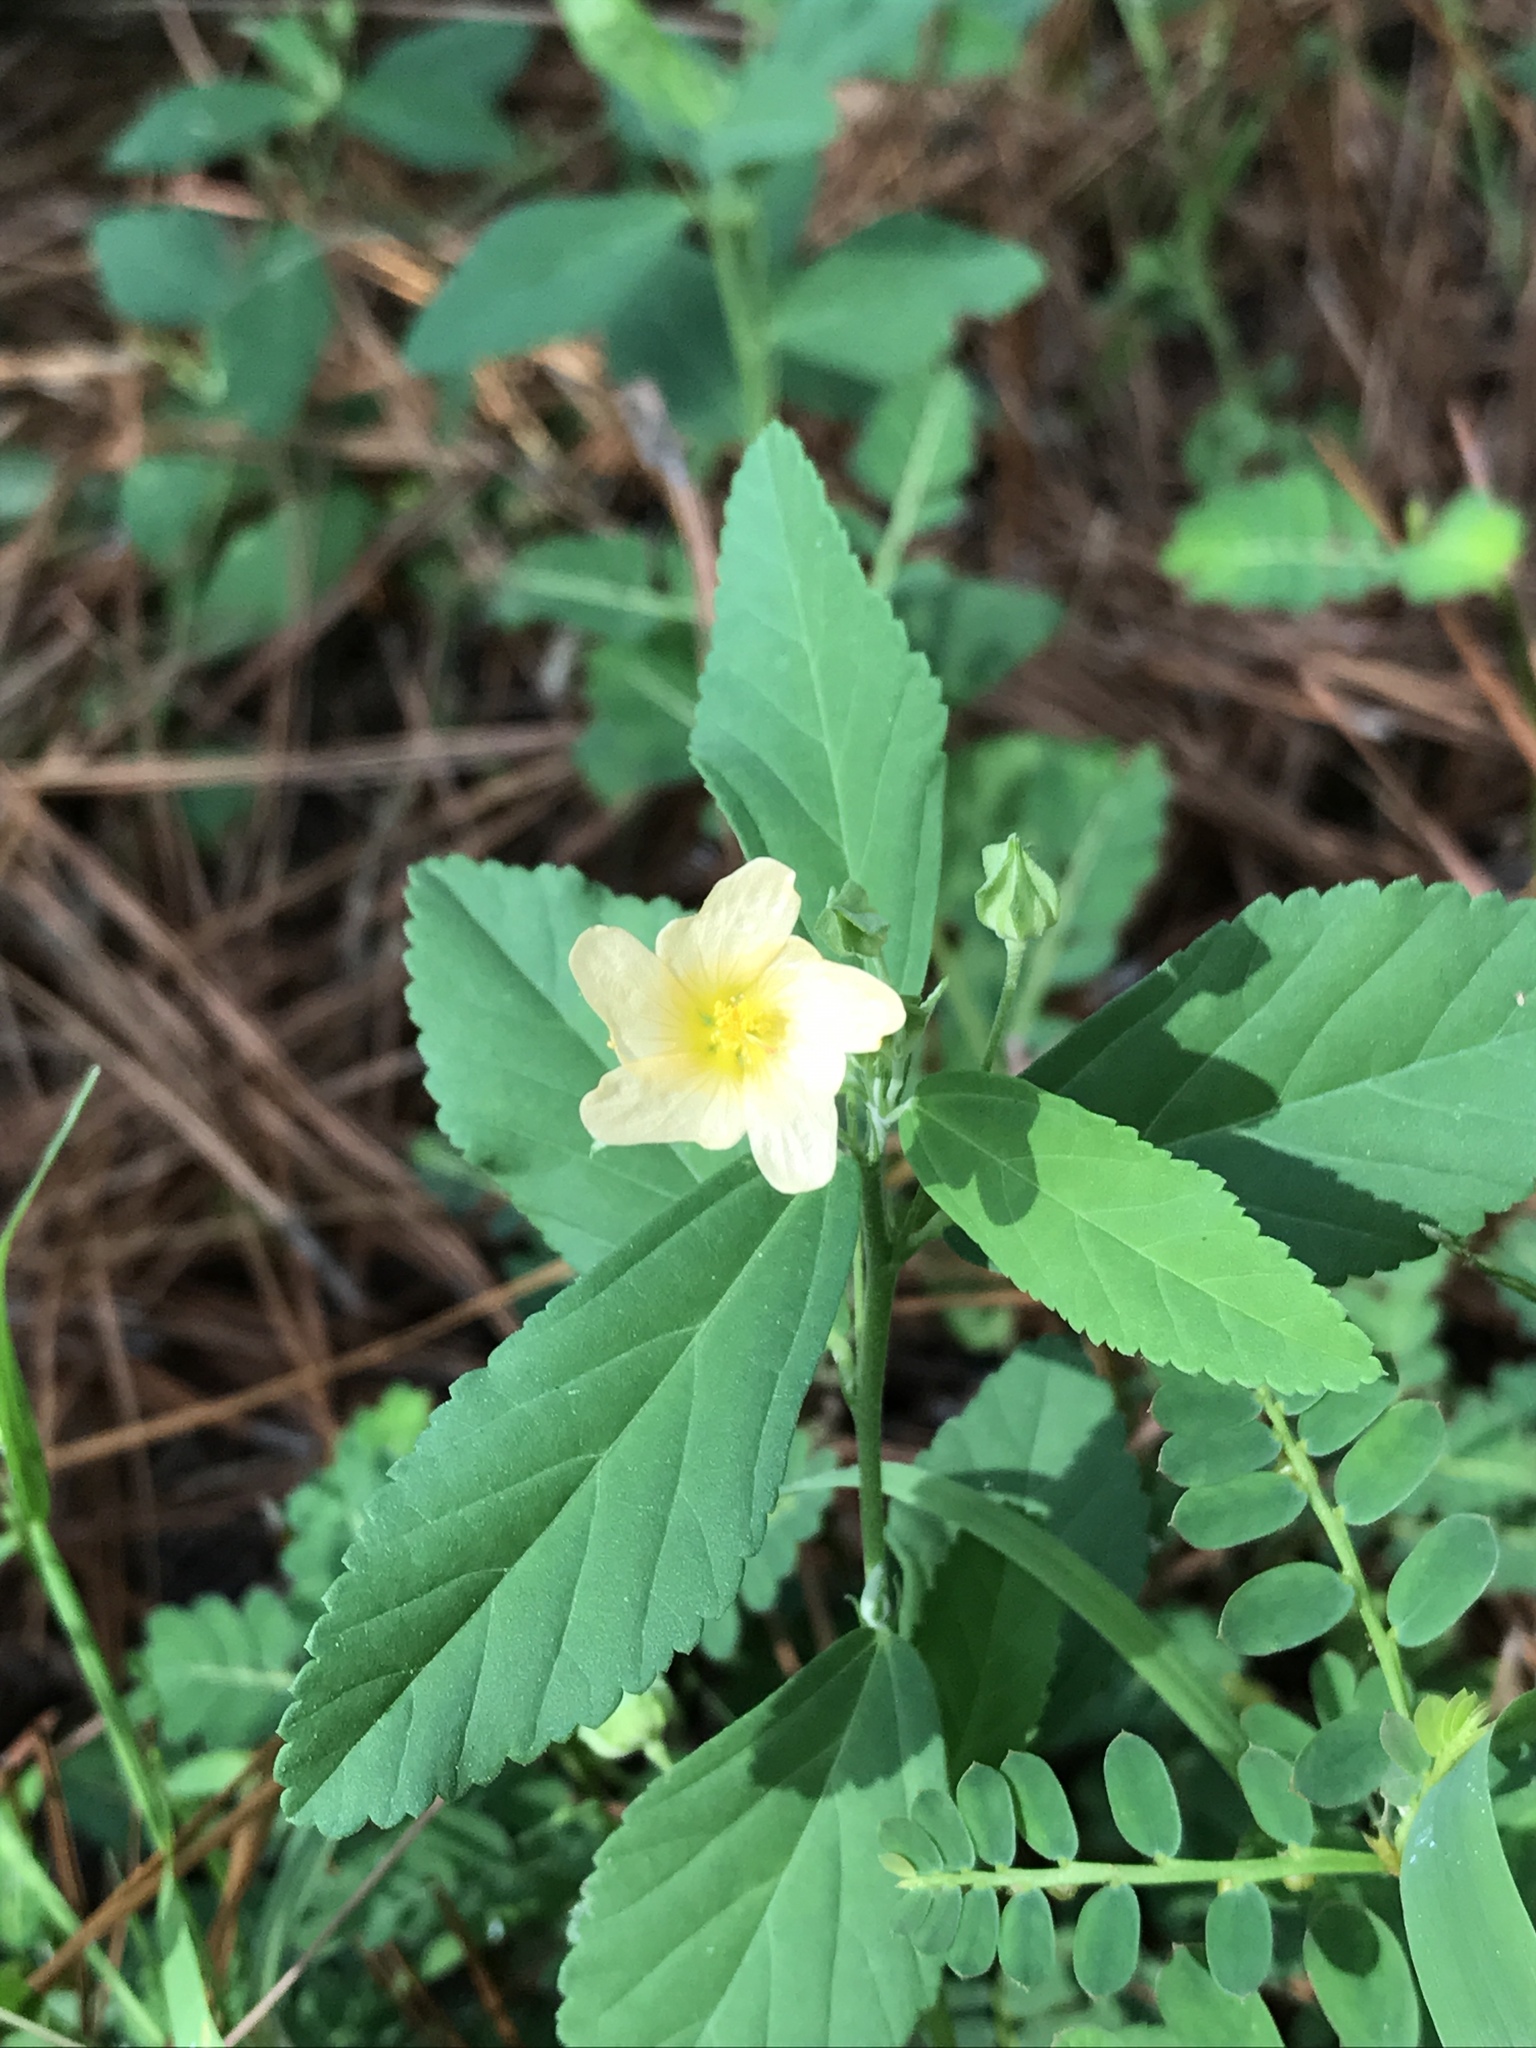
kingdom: Plantae
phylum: Tracheophyta
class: Magnoliopsida
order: Malvales
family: Malvaceae
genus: Sida
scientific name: Sida rhombifolia
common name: Queensland-hemp
